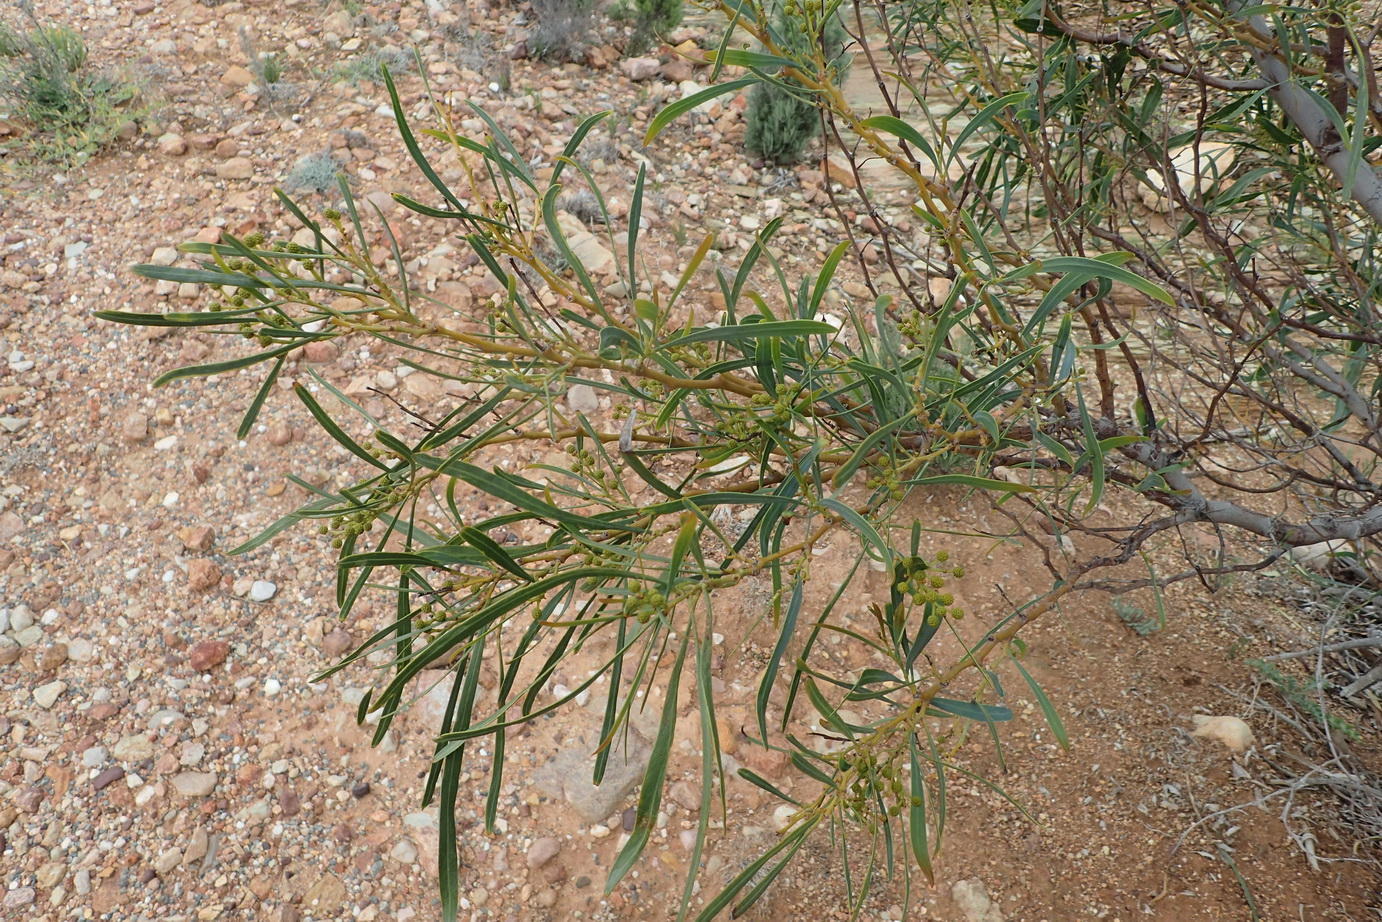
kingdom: Plantae
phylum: Tracheophyta
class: Magnoliopsida
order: Fabales
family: Fabaceae
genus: Acacia
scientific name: Acacia saligna
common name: Orange wattle
